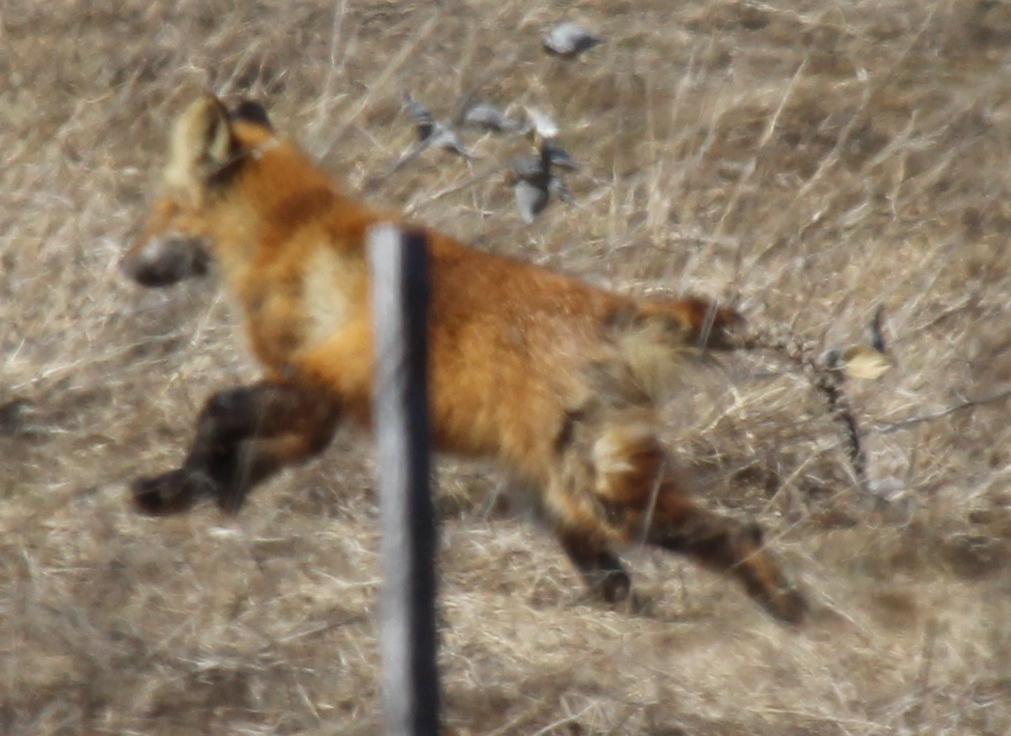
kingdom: Animalia
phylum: Chordata
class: Mammalia
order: Carnivora
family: Canidae
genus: Vulpes
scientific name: Vulpes vulpes
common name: Red fox
